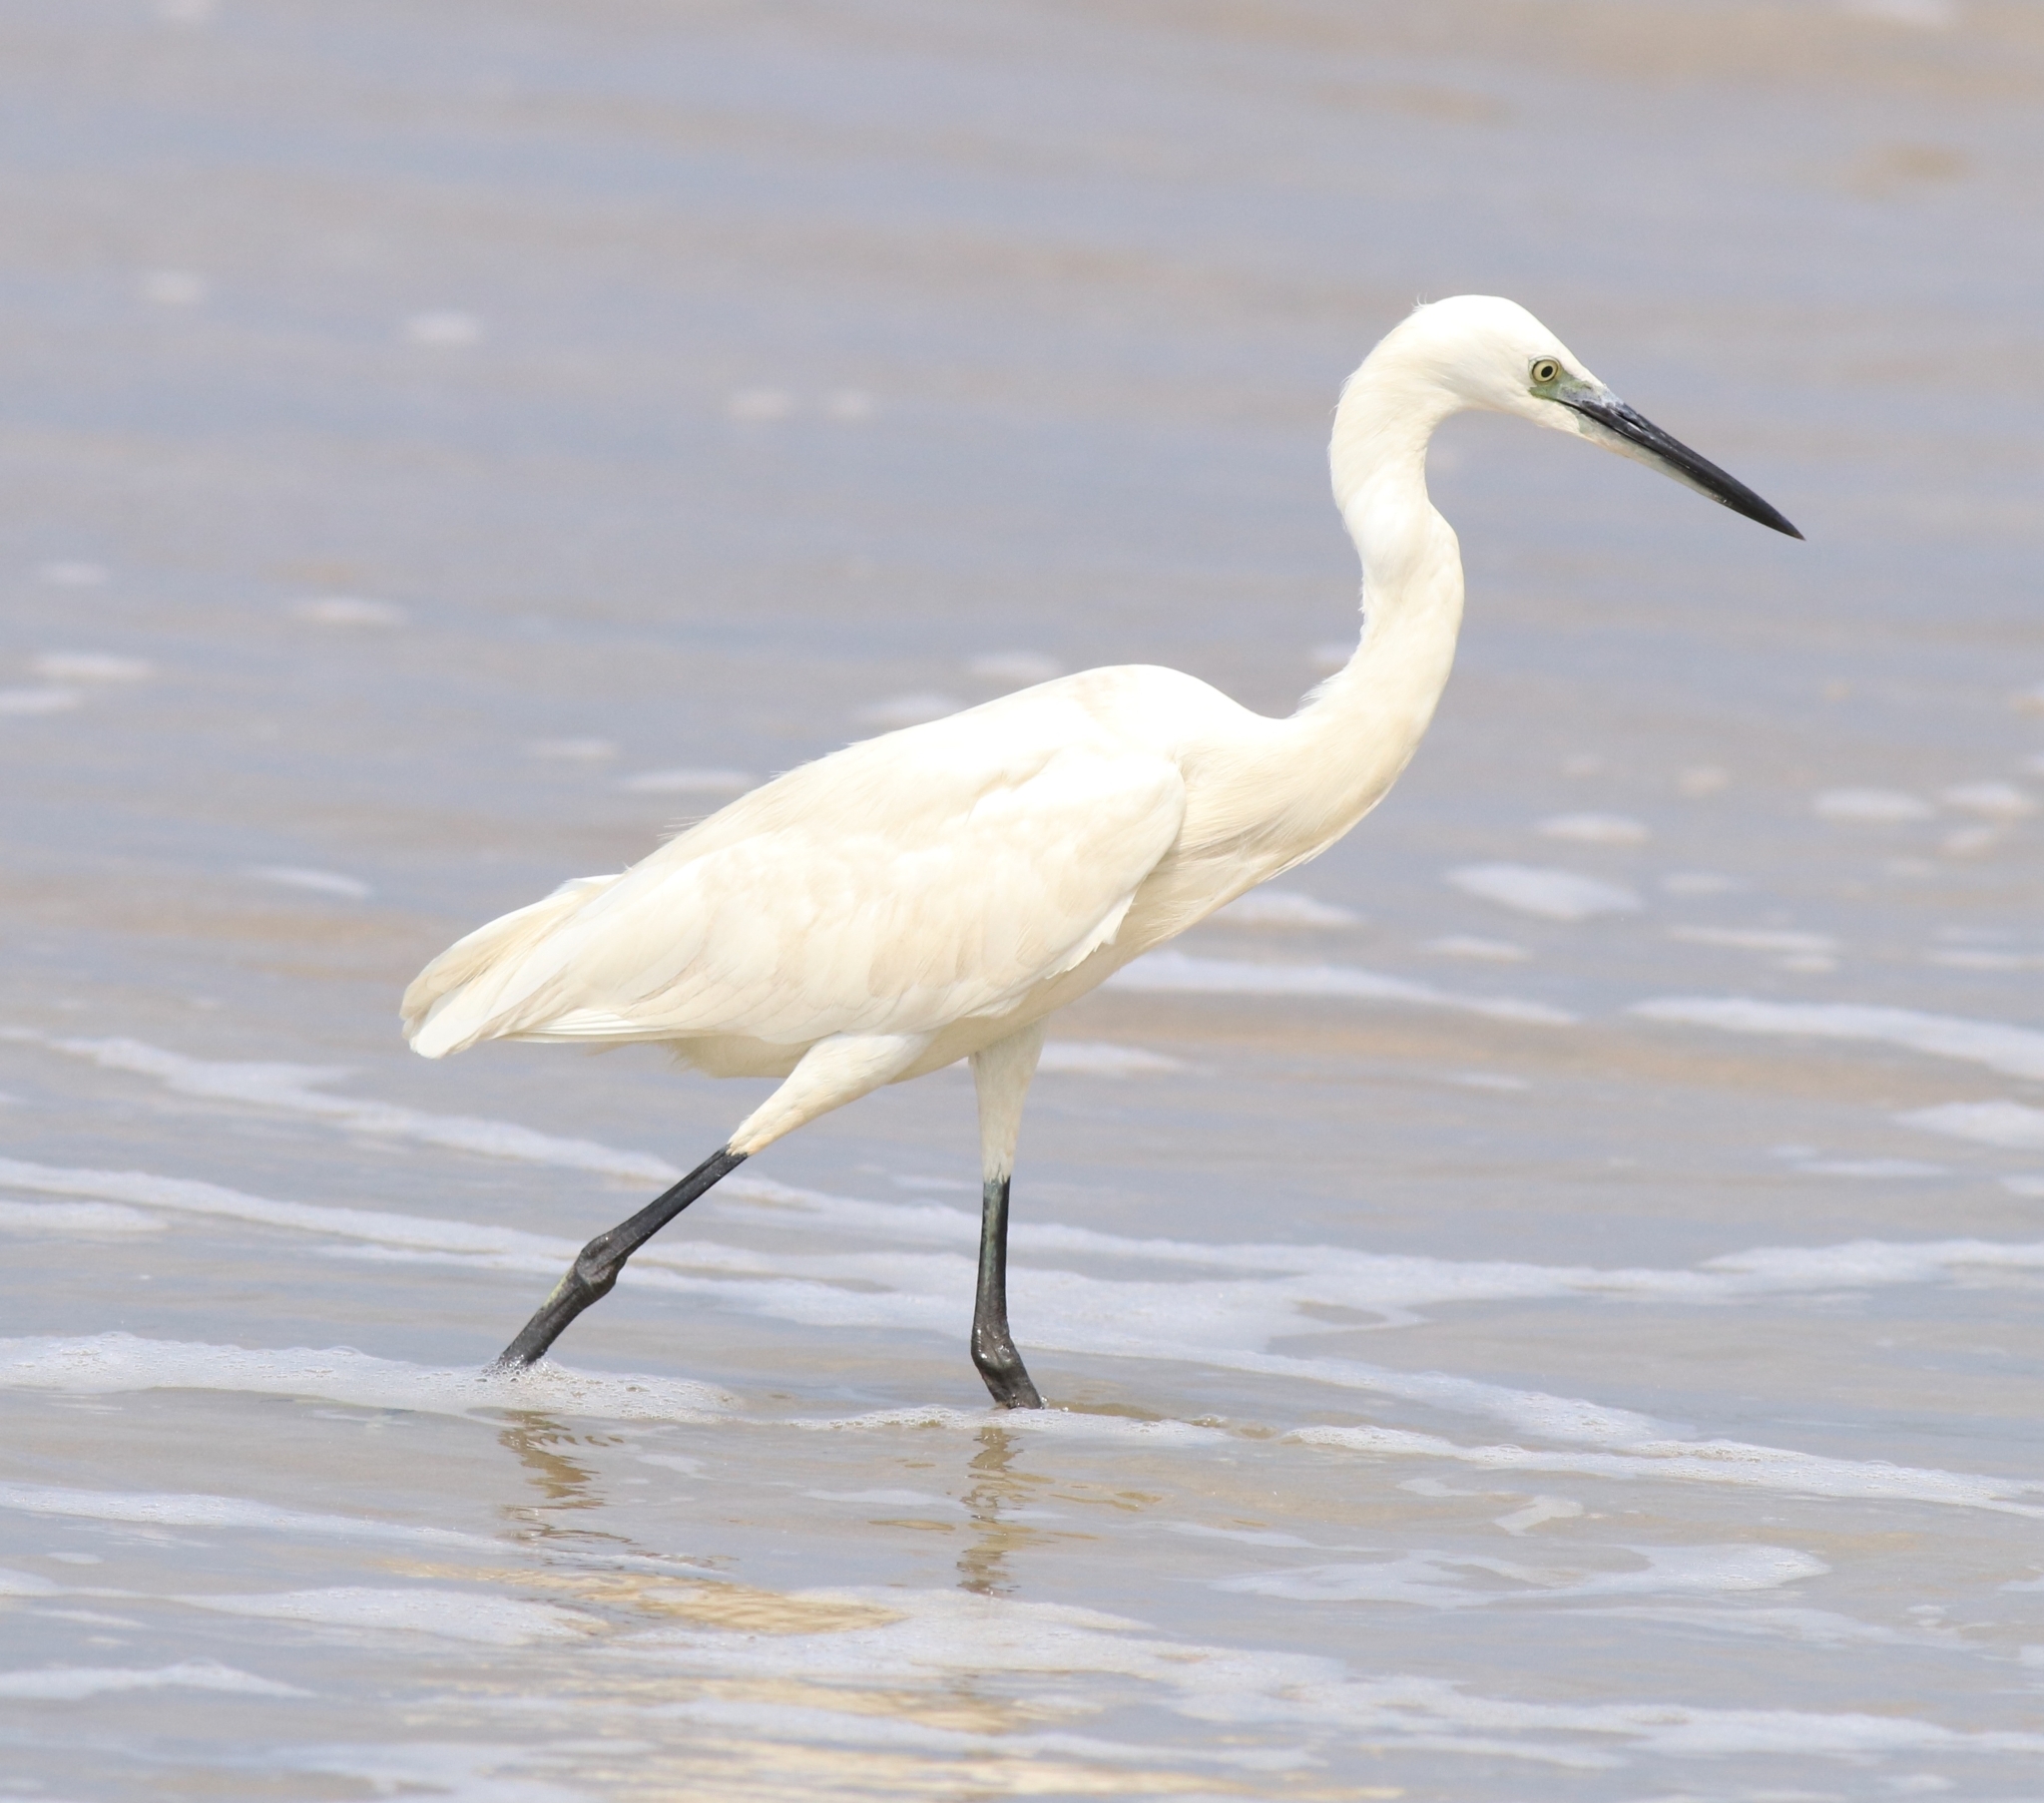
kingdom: Animalia
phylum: Chordata
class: Aves
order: Pelecaniformes
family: Ardeidae
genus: Egretta
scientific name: Egretta garzetta
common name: Little egret
